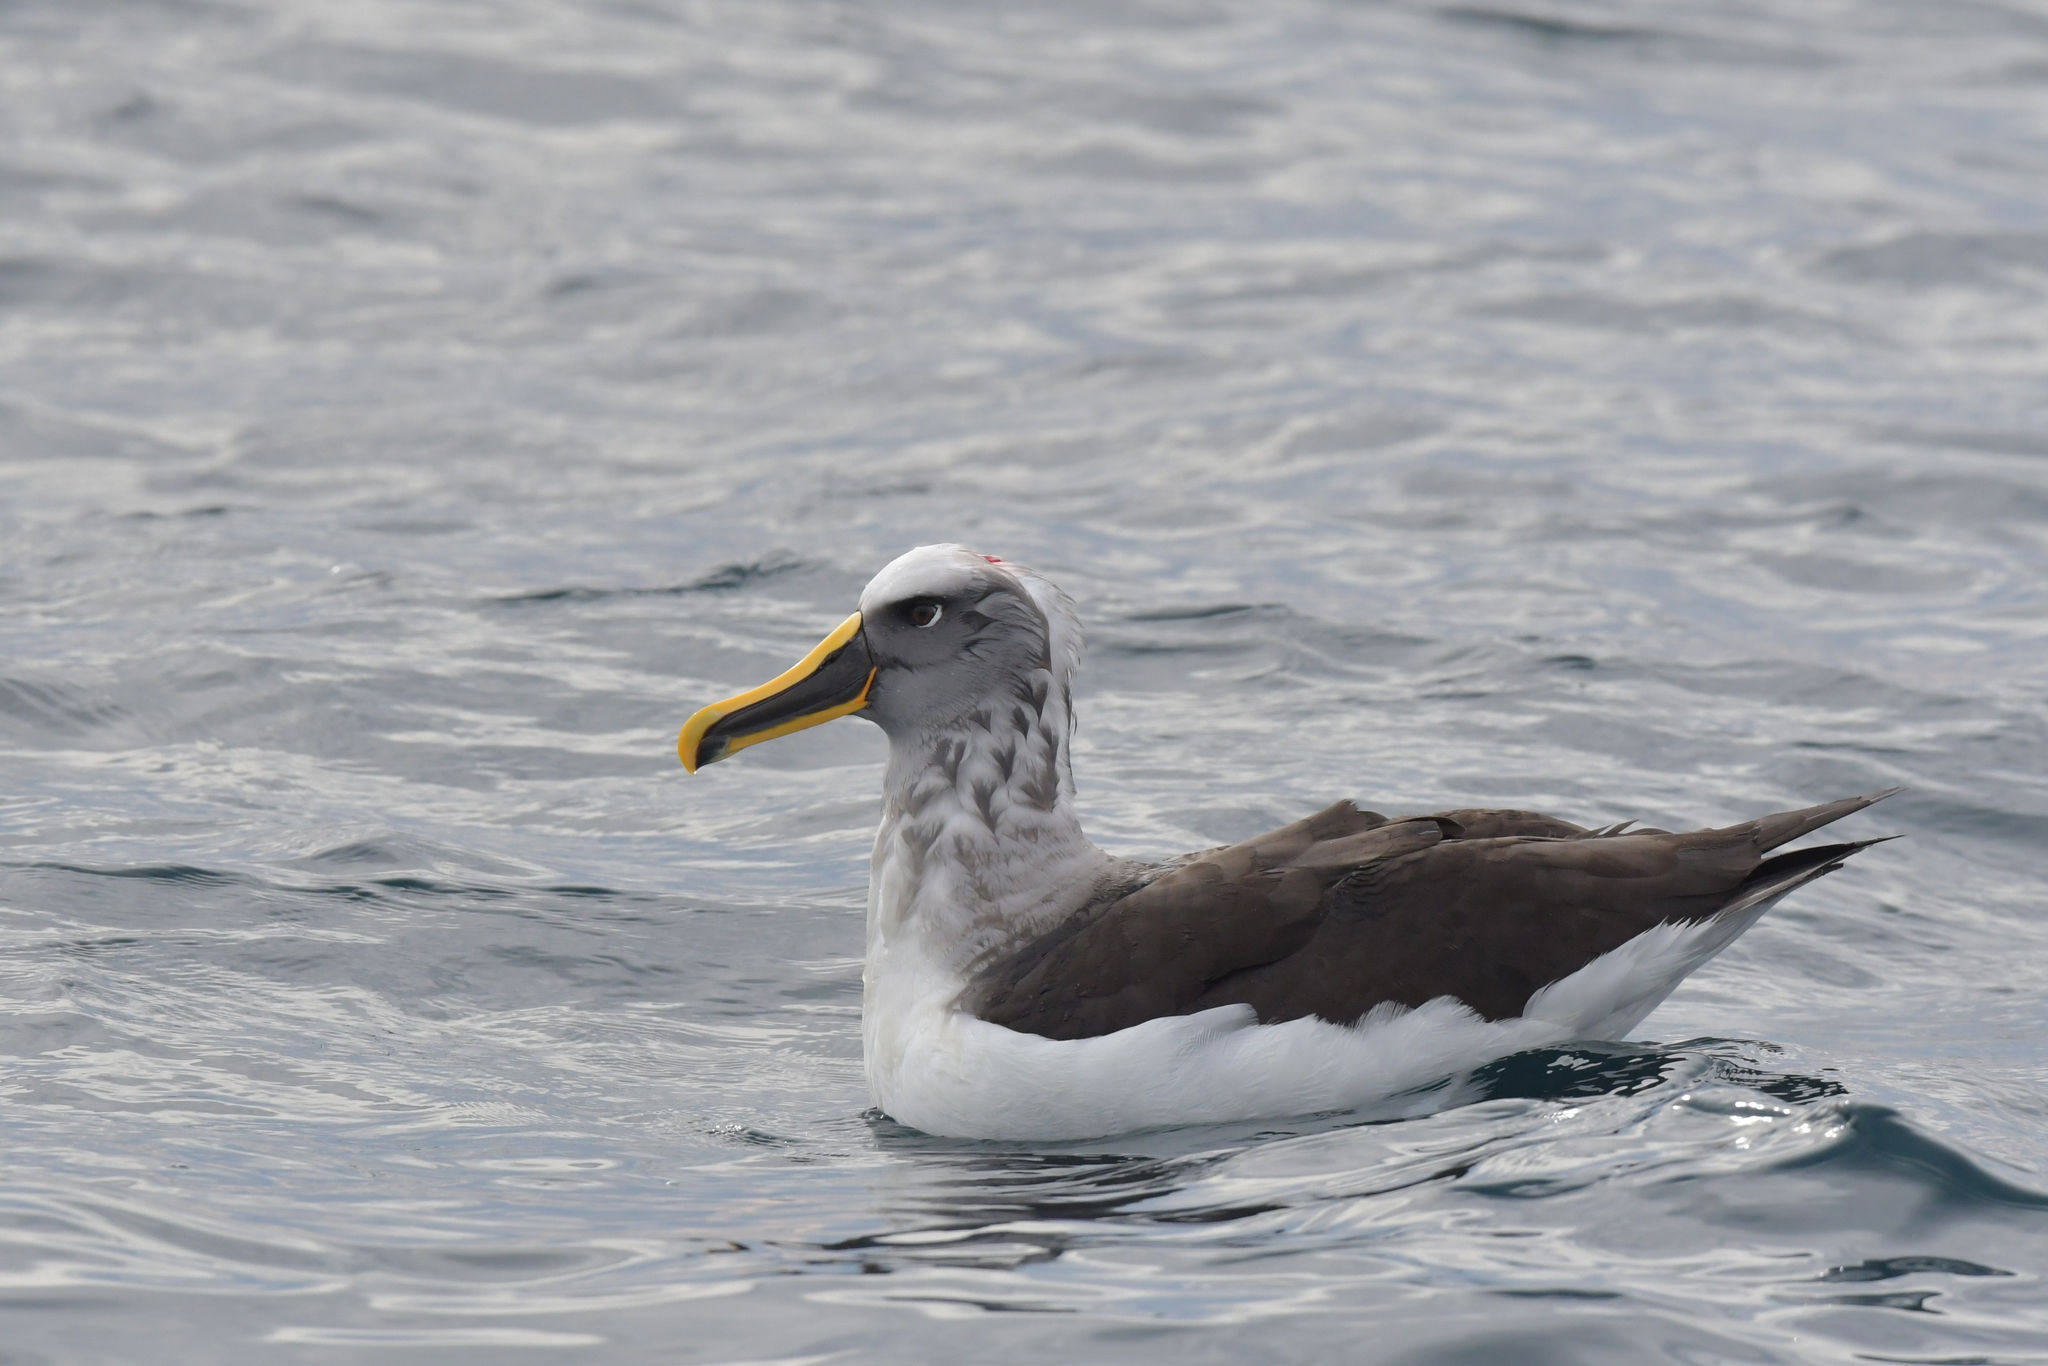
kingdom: Animalia
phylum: Chordata
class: Aves
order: Procellariiformes
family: Diomedeidae
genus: Thalassarche
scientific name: Thalassarche bulleri
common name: Buller's albatross
